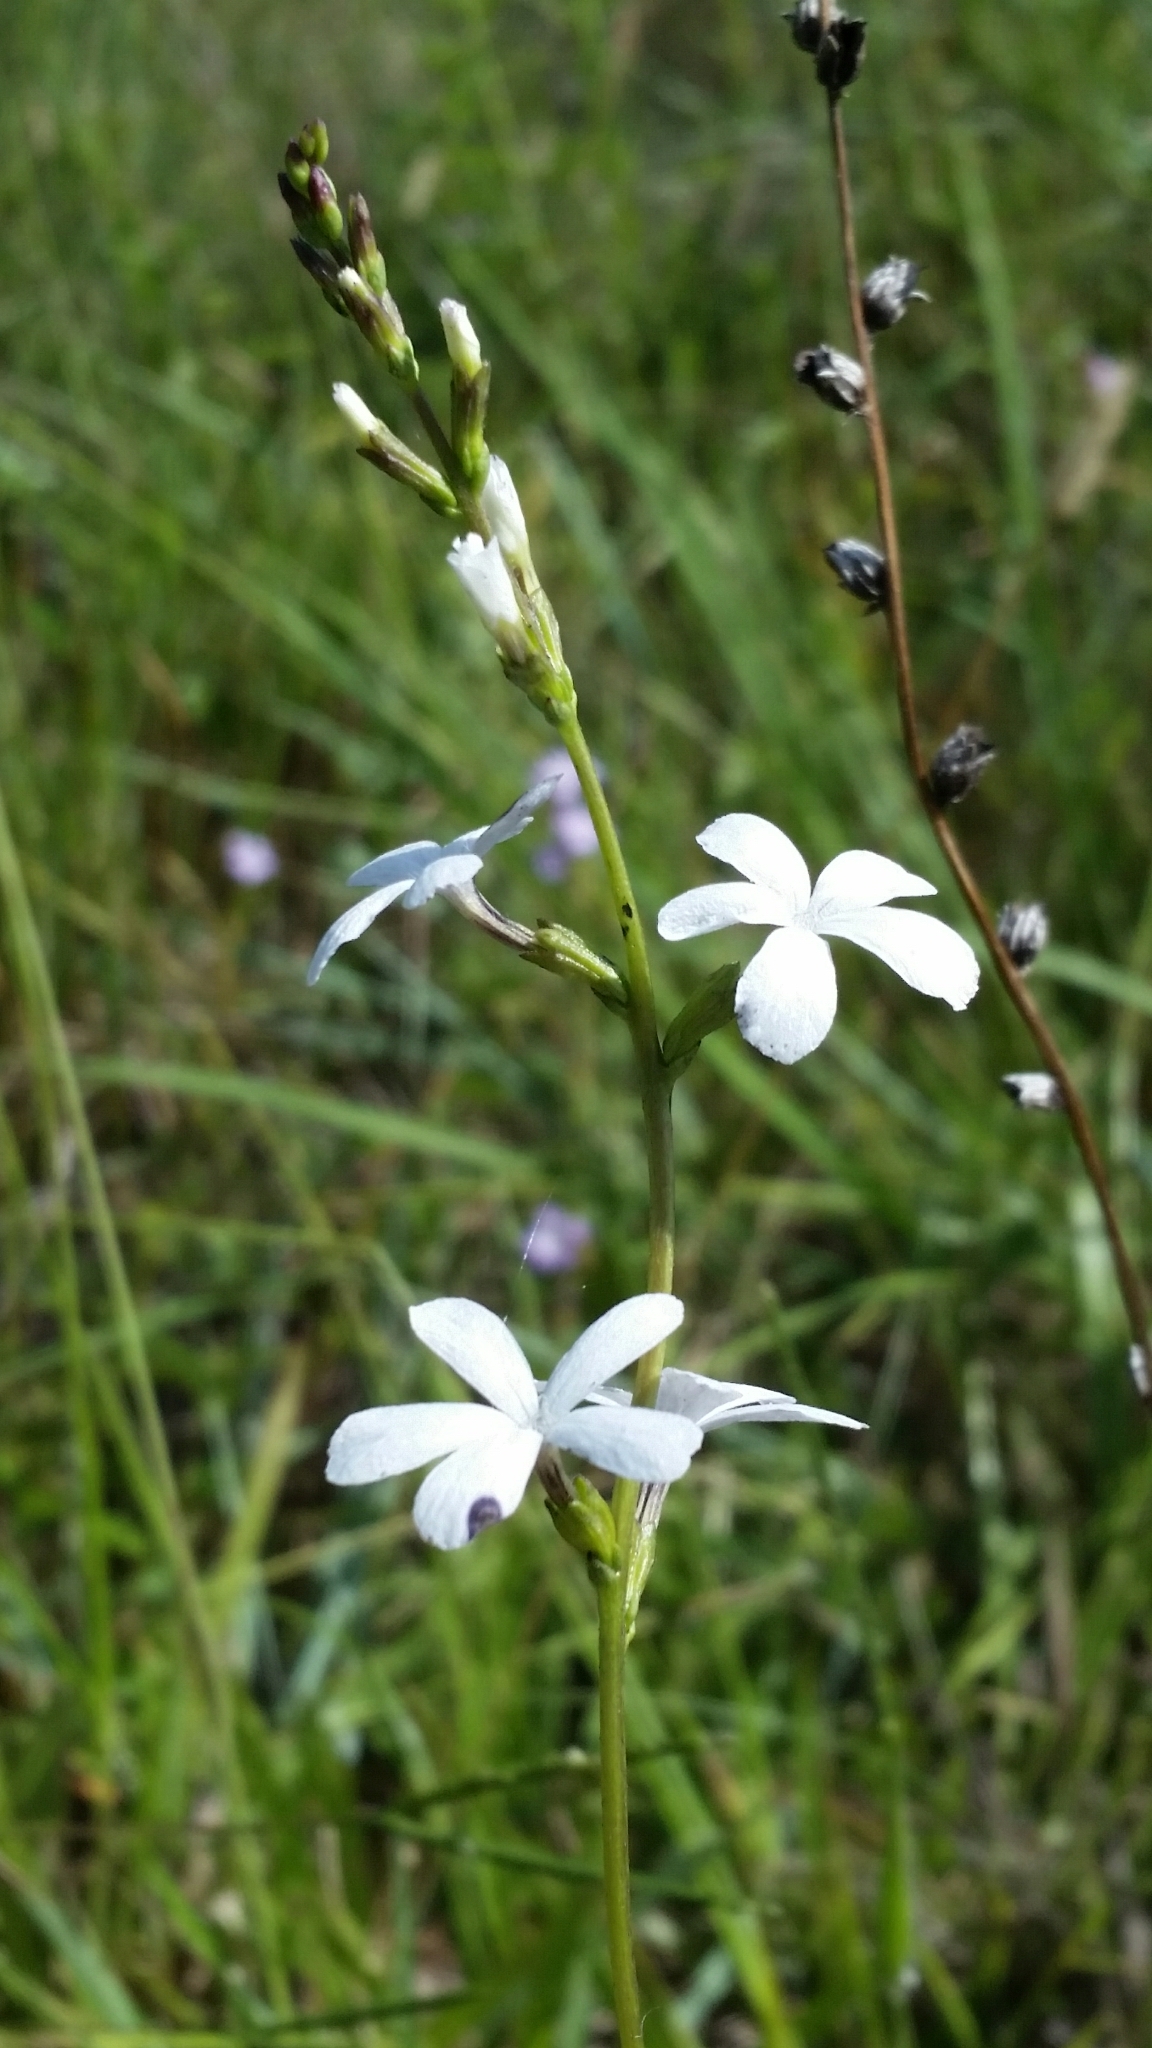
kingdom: Plantae
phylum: Tracheophyta
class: Magnoliopsida
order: Lamiales
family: Orobanchaceae
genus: Buchnera
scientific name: Buchnera floridana
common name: Florida bluehearts
